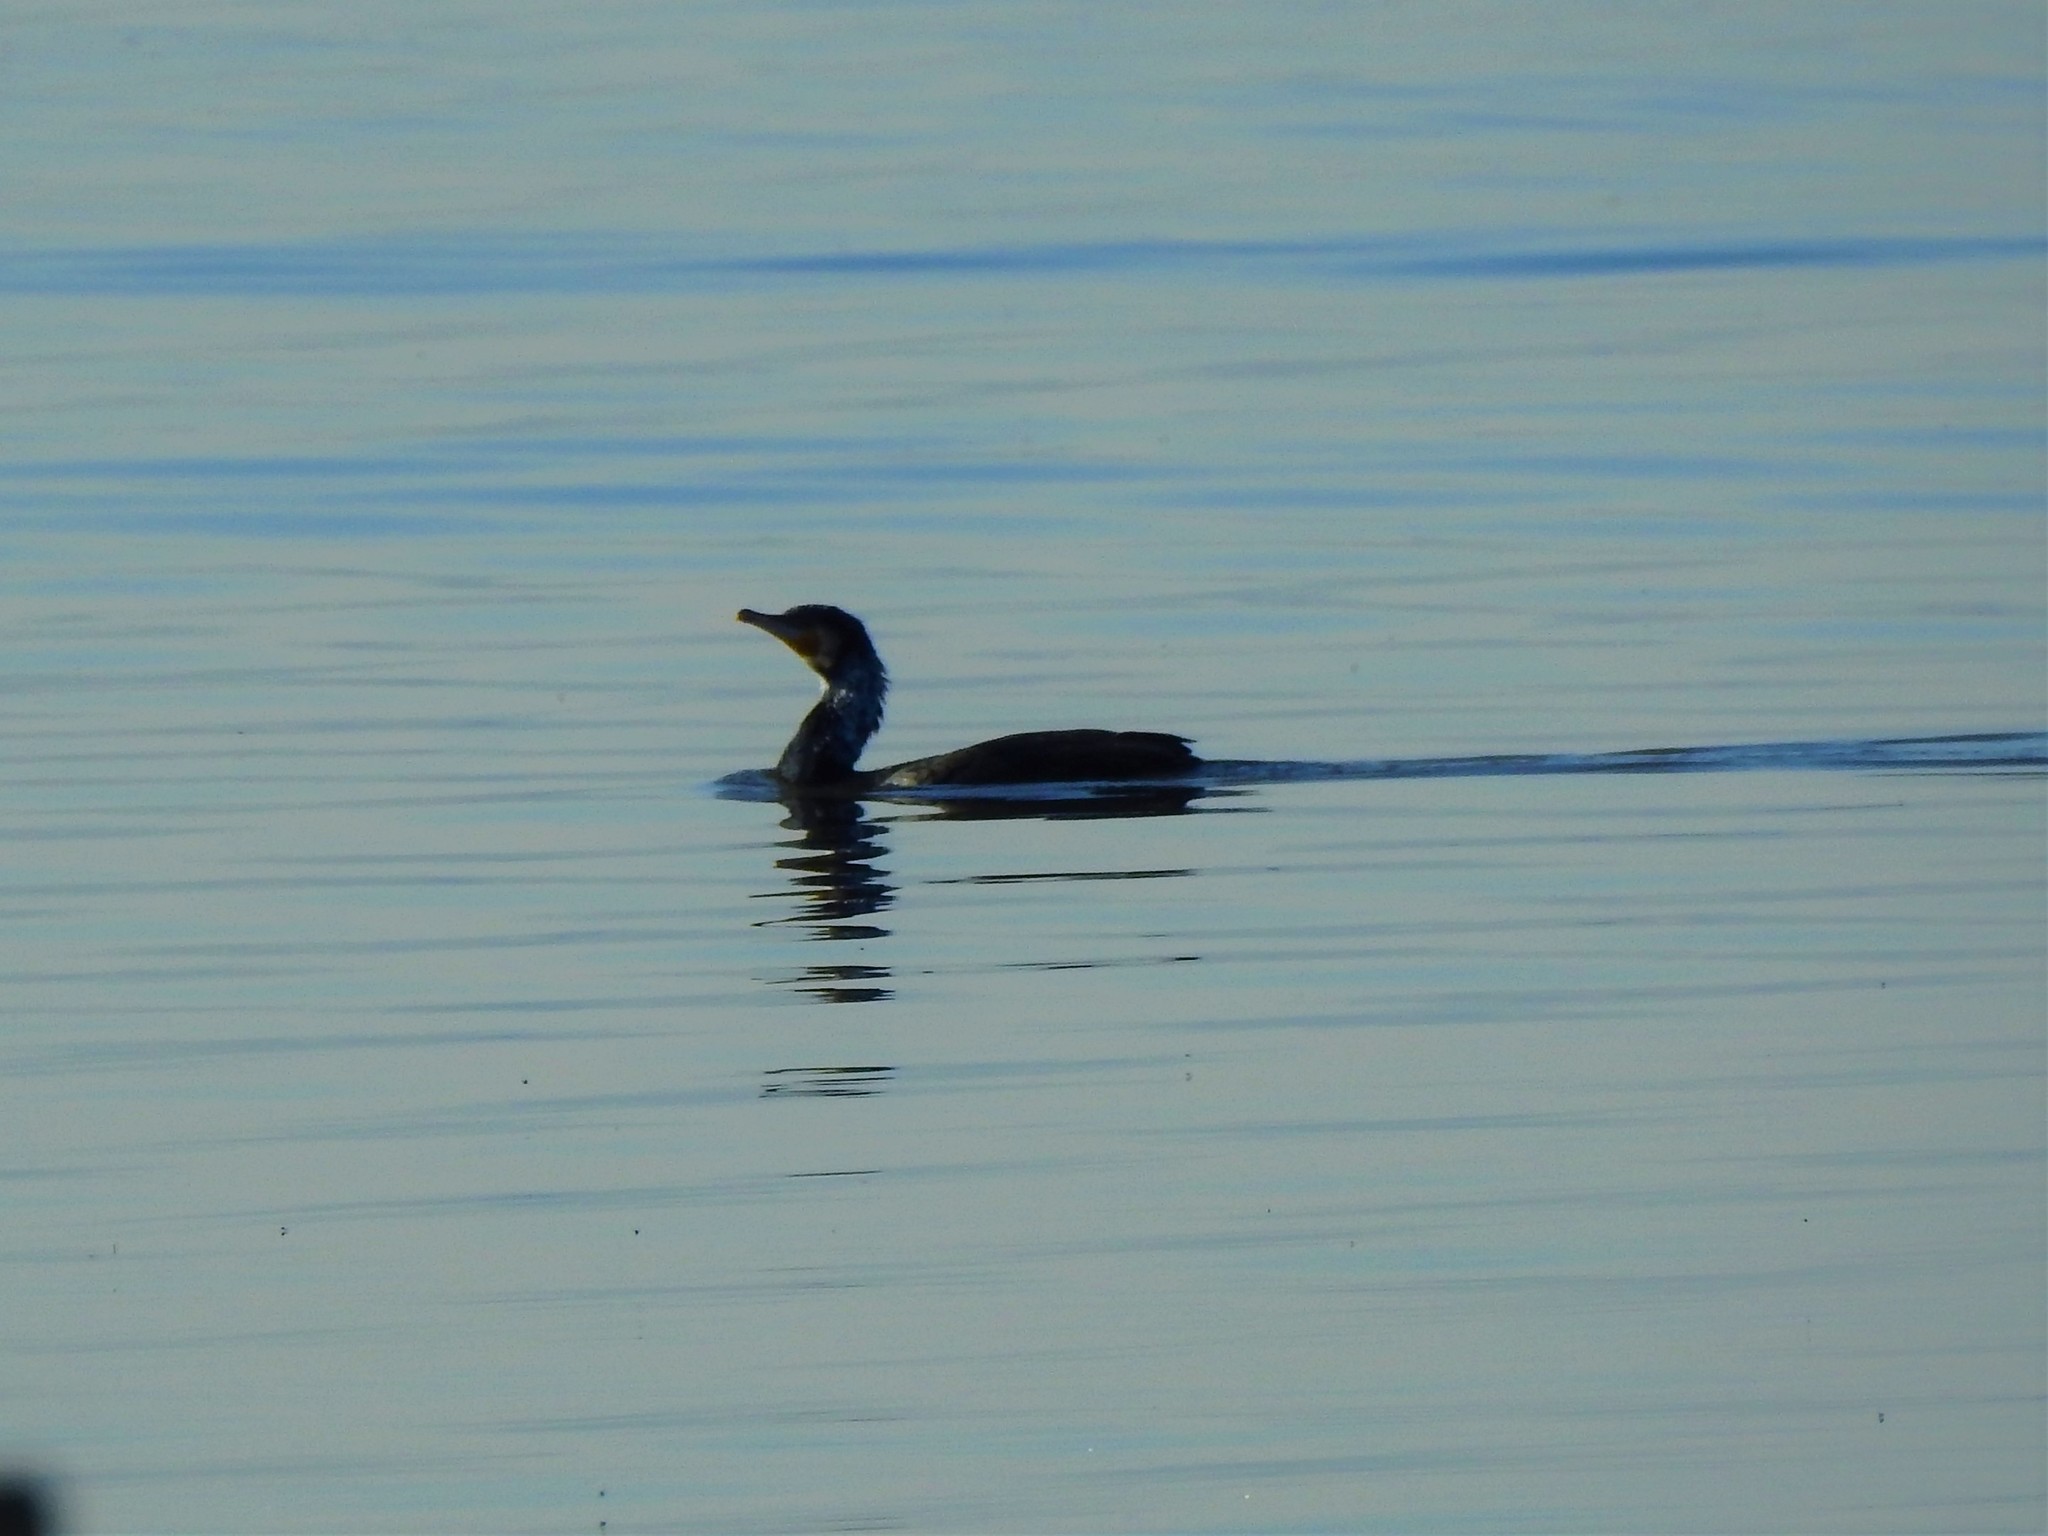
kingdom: Animalia
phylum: Chordata
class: Aves
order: Suliformes
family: Phalacrocoracidae
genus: Phalacrocorax
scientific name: Phalacrocorax carbo
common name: Great cormorant
